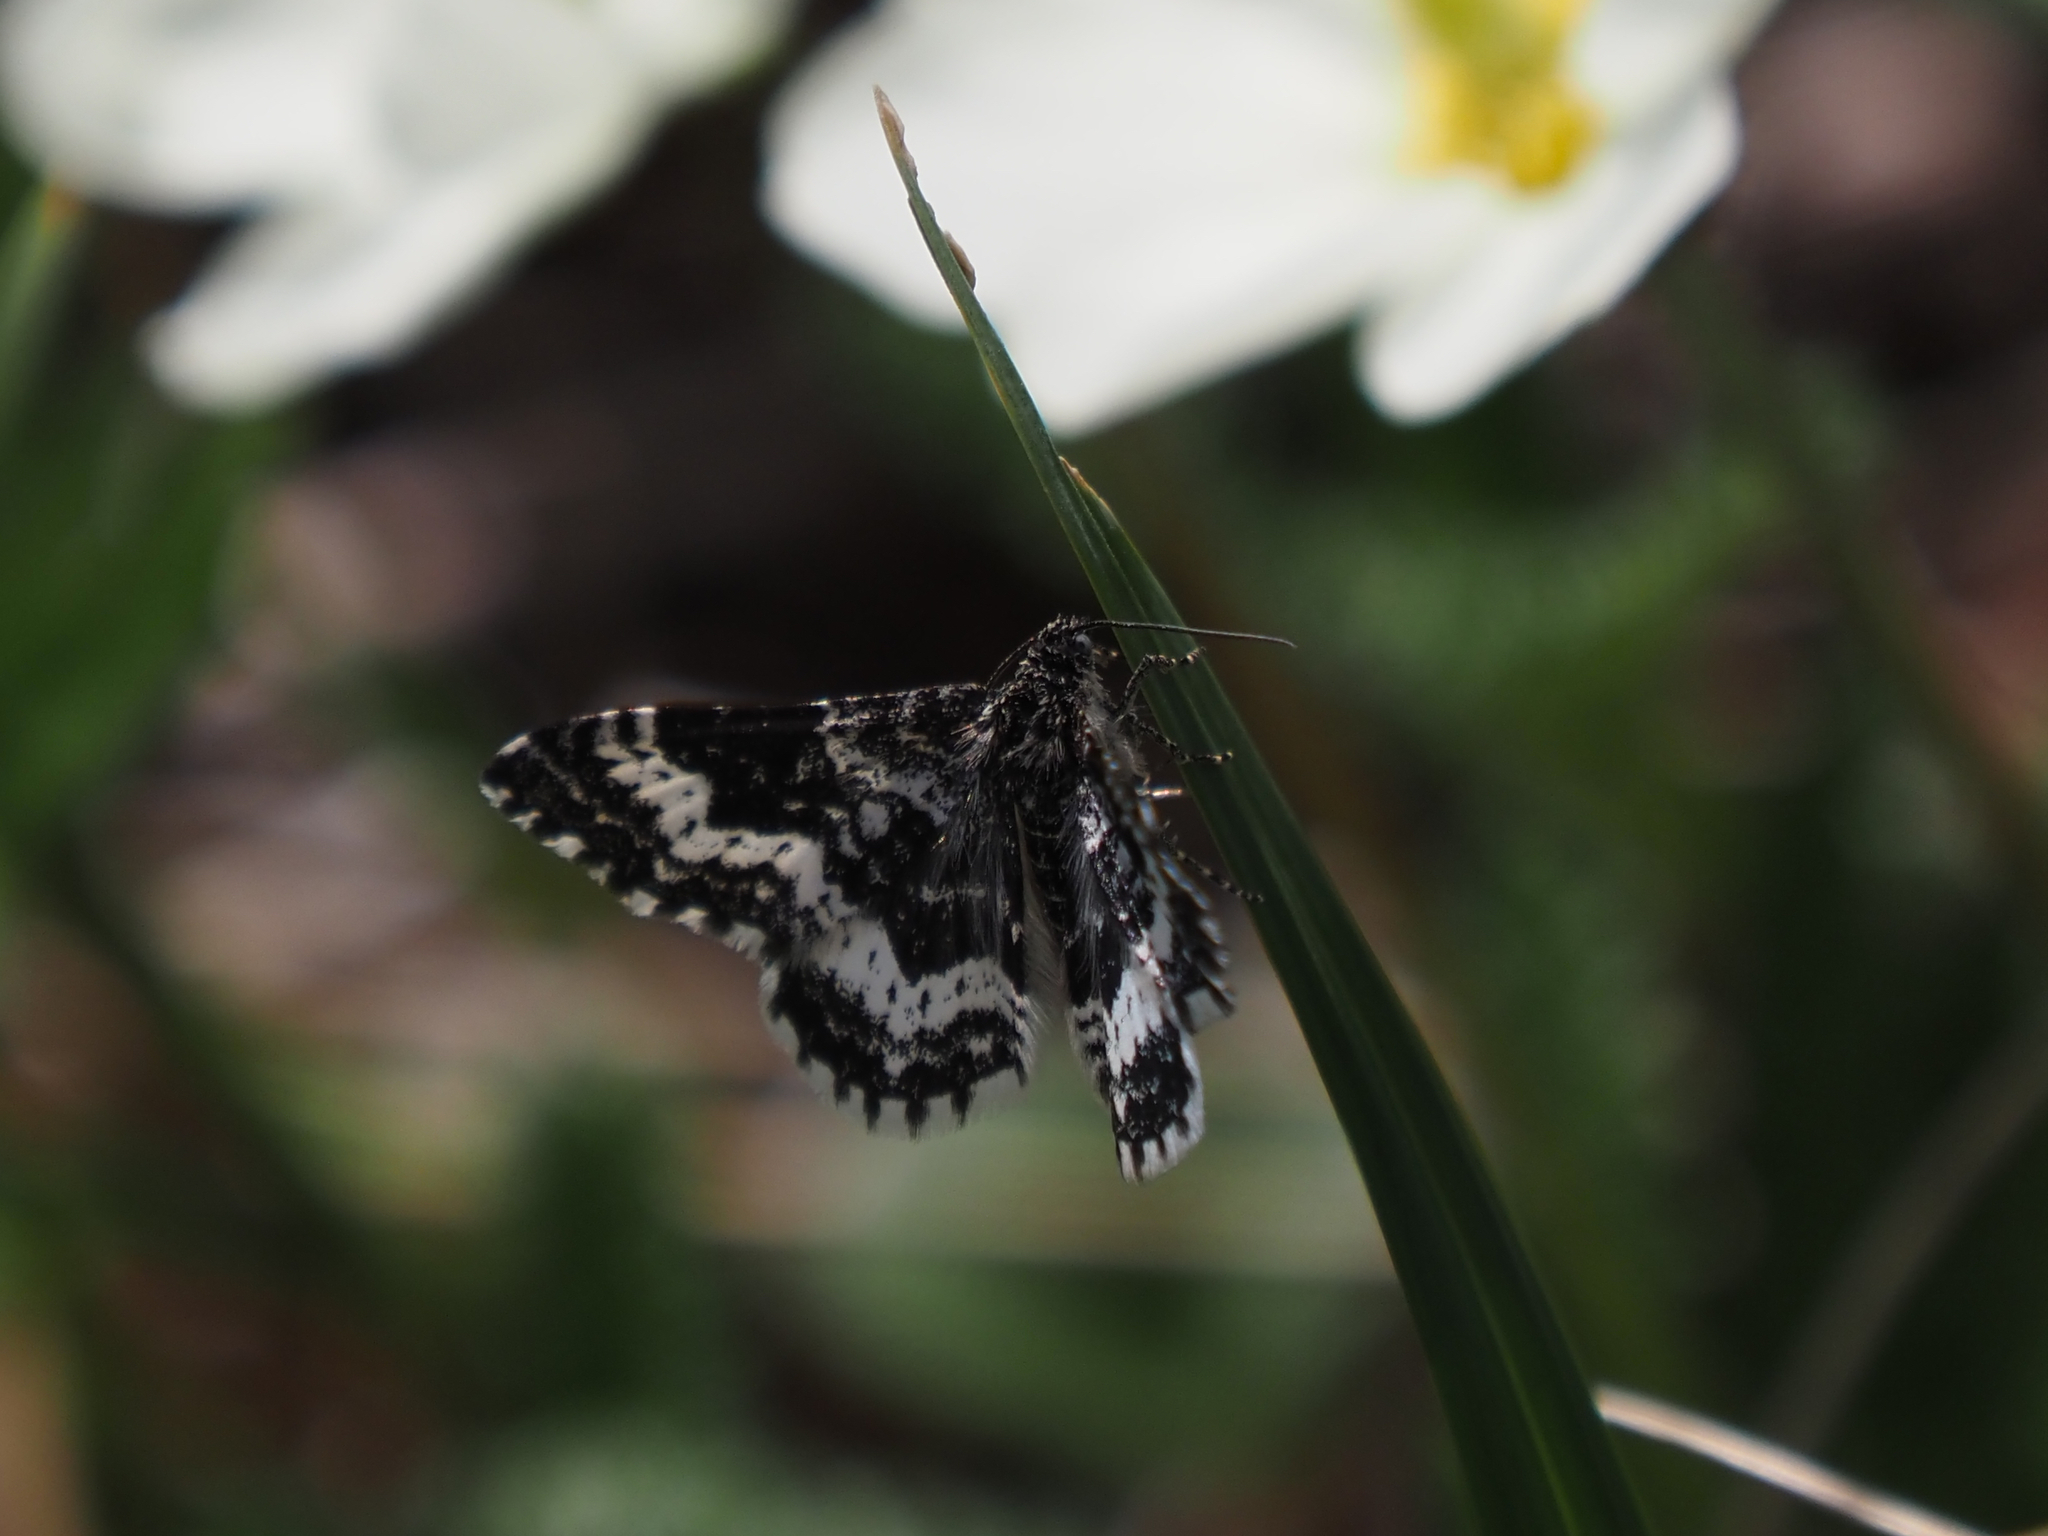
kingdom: Animalia
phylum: Arthropoda
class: Insecta
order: Lepidoptera
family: Geometridae
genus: Rheumaptera
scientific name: Rheumaptera
